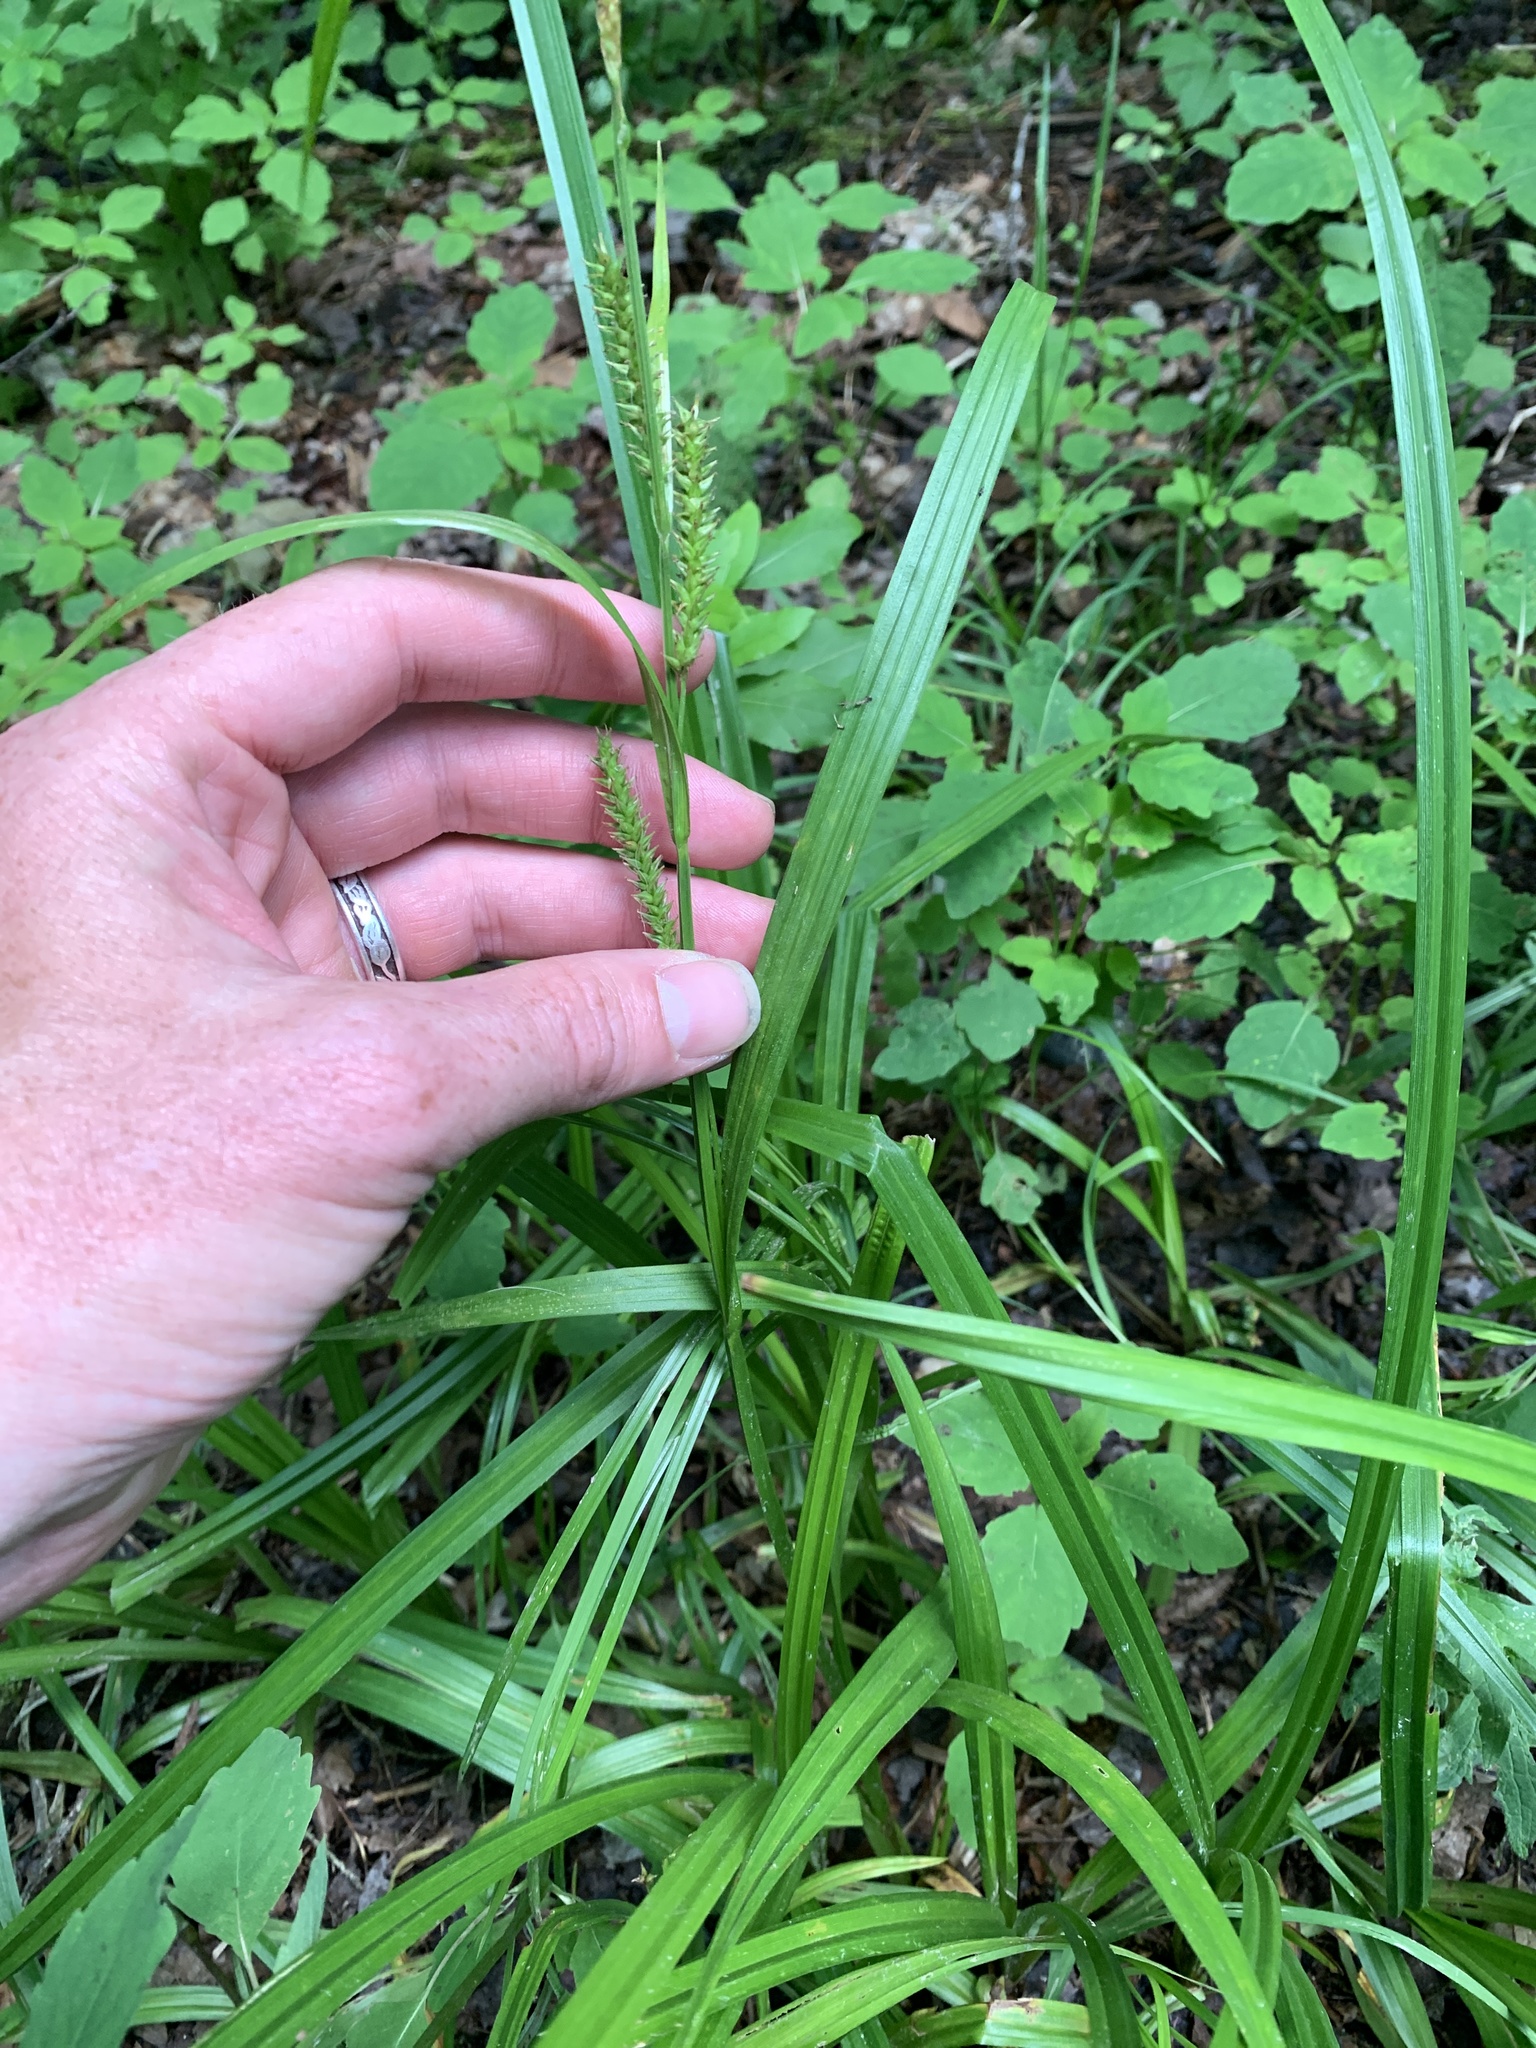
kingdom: Plantae
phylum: Tracheophyta
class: Liliopsida
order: Poales
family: Cyperaceae
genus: Carex
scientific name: Carex scabrata
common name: Eastern rough sedge
